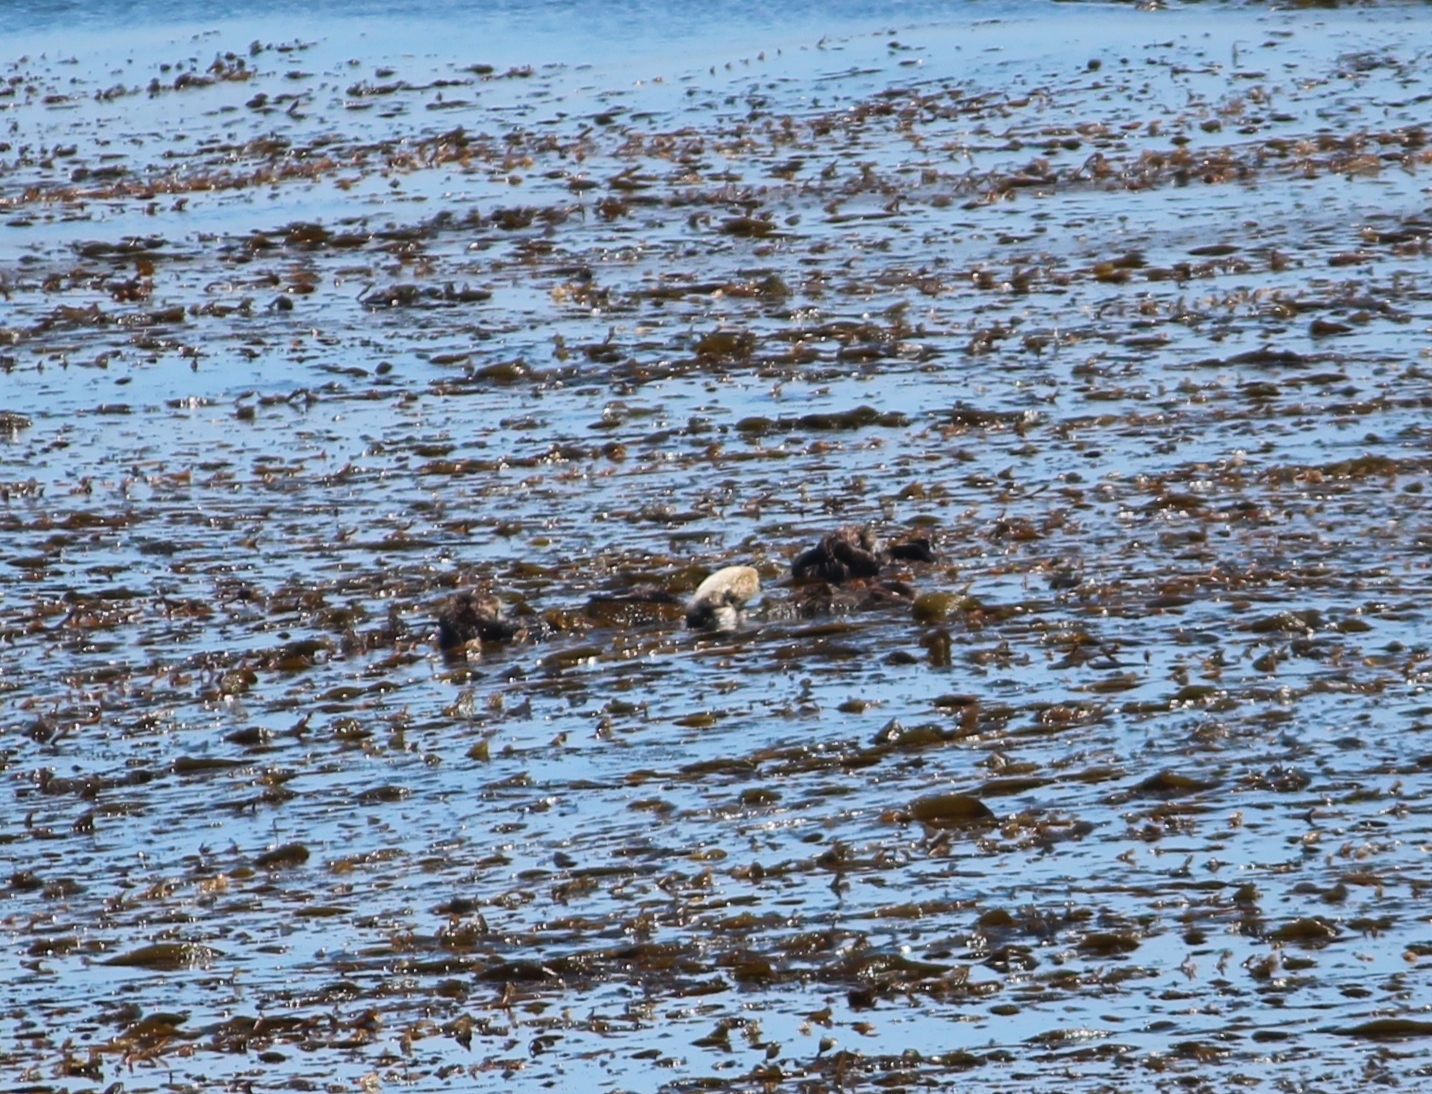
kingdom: Animalia
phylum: Chordata
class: Mammalia
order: Carnivora
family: Mustelidae
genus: Enhydra
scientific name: Enhydra lutris
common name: Sea otter
